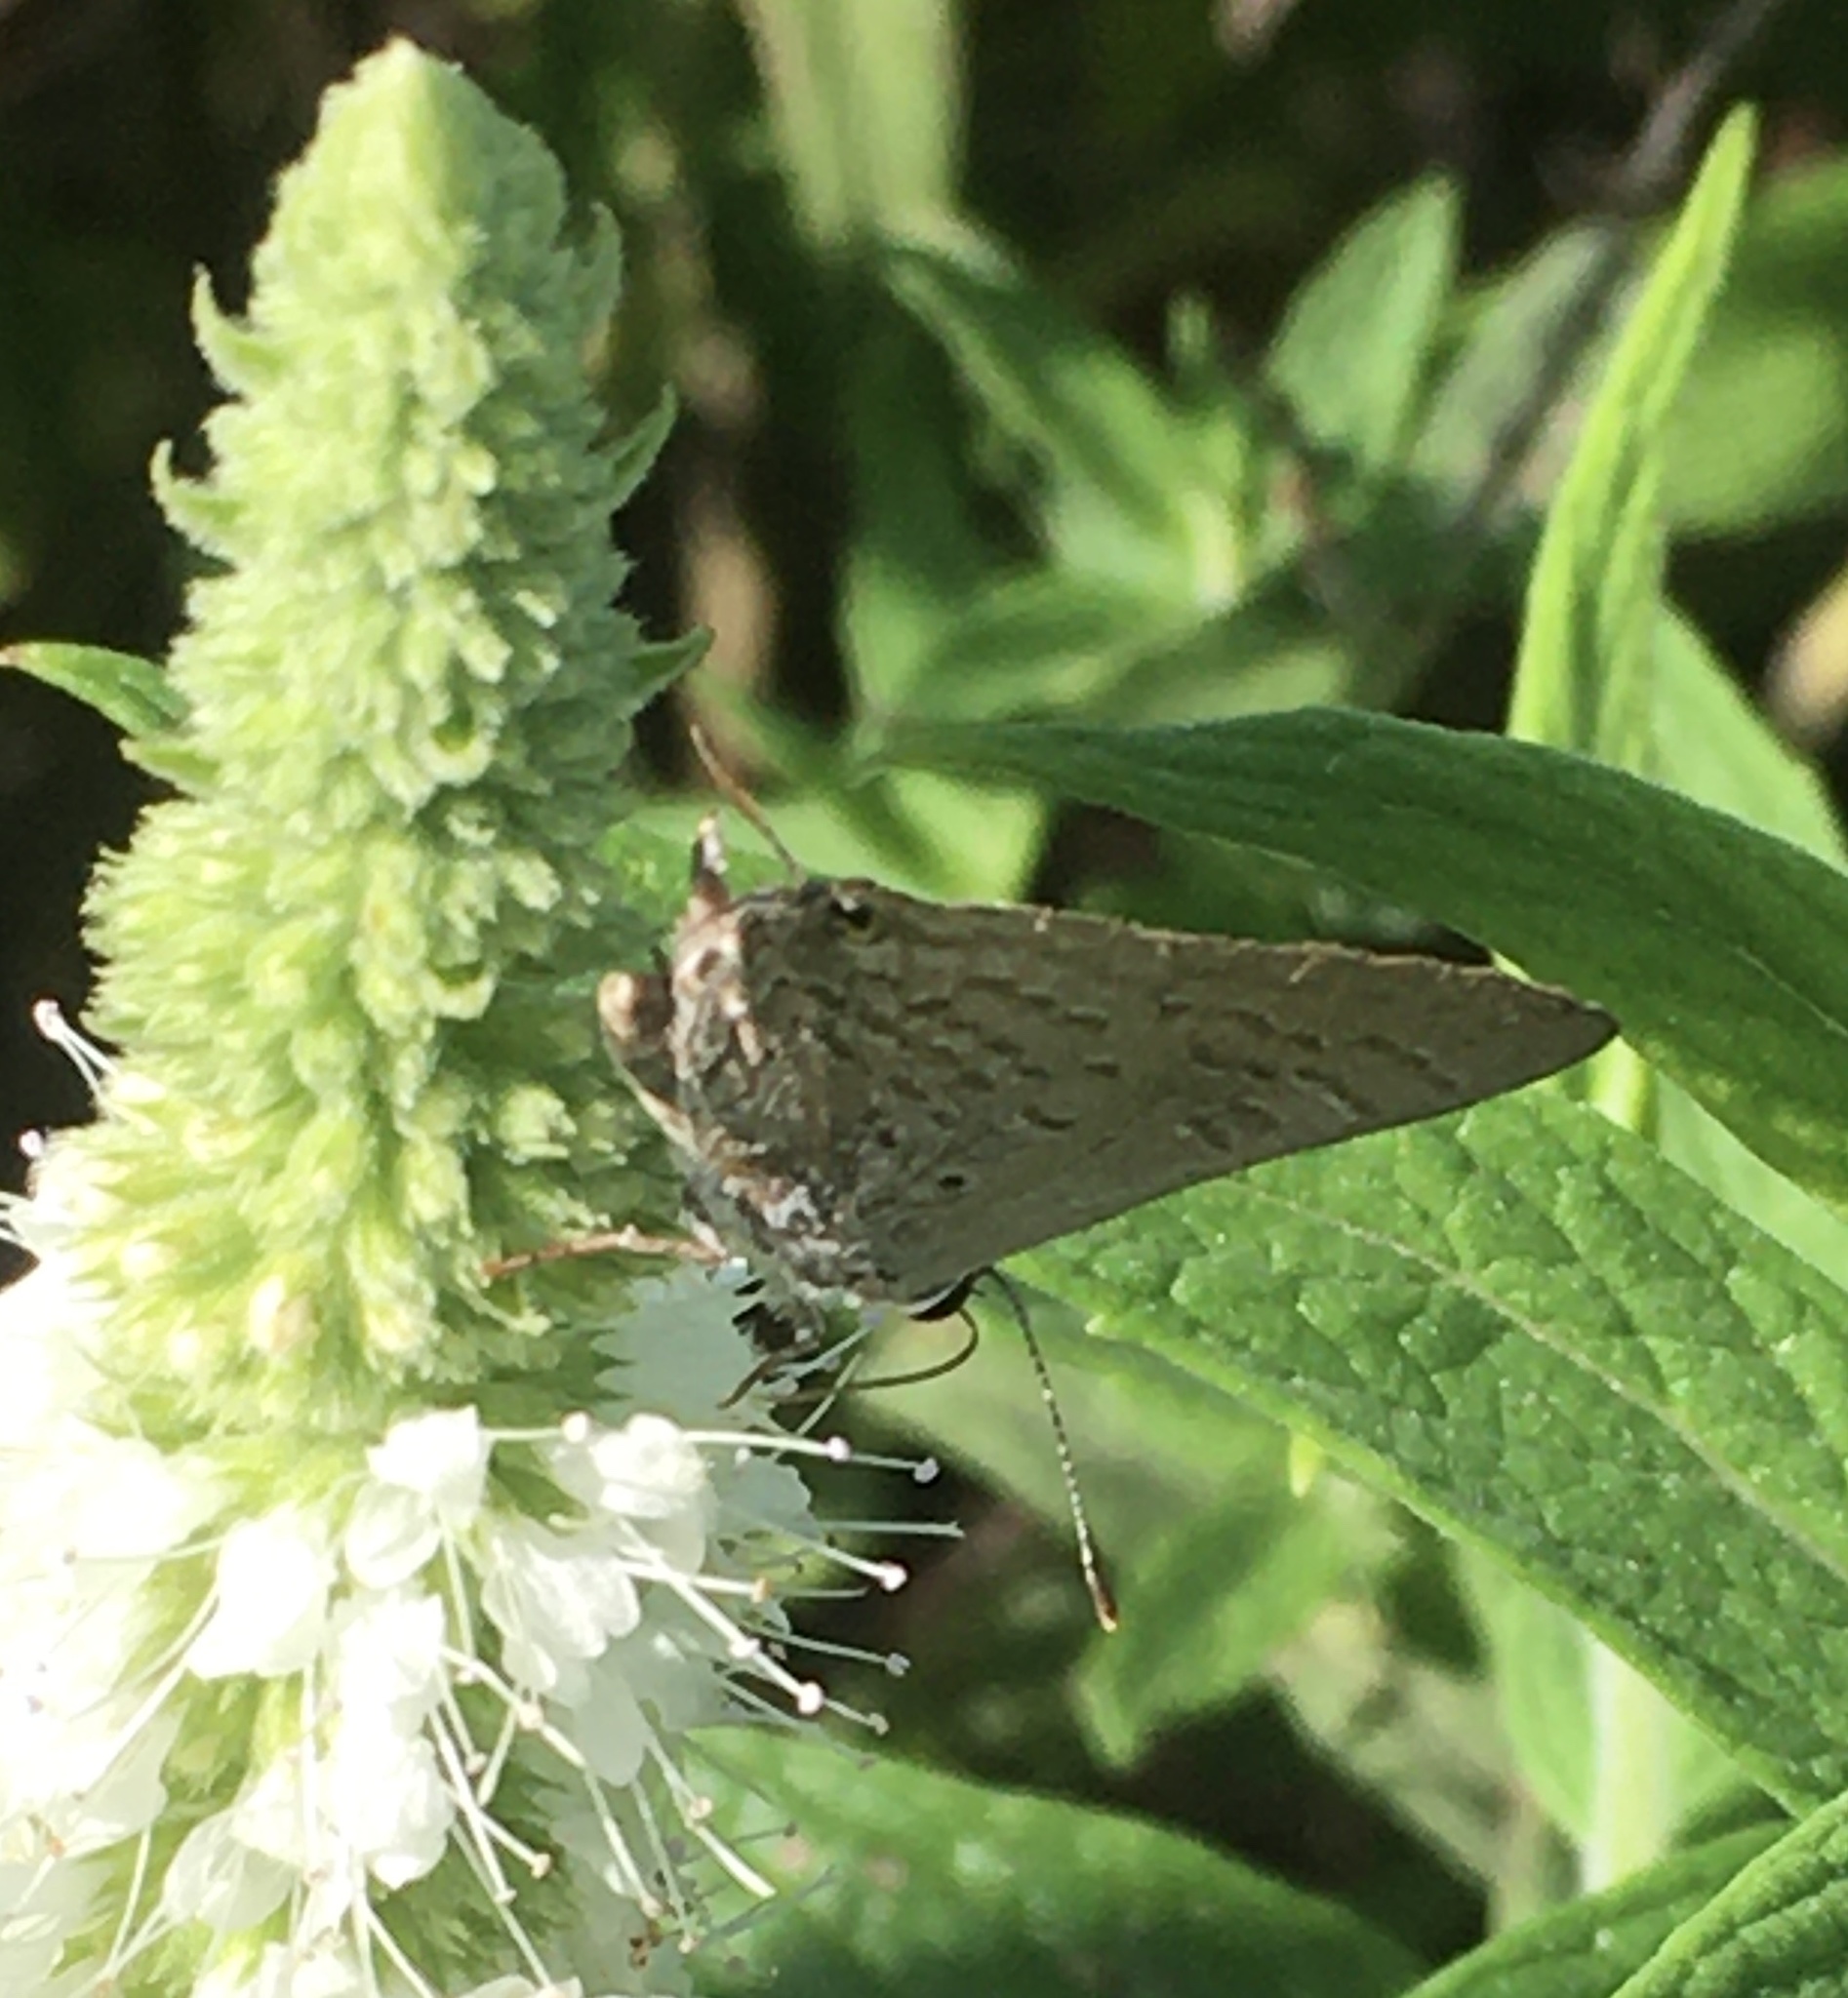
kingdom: Animalia
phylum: Arthropoda
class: Insecta
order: Lepidoptera
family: Lycaenidae
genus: Deudorix
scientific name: Deudorix antalus
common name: Brown playboy
